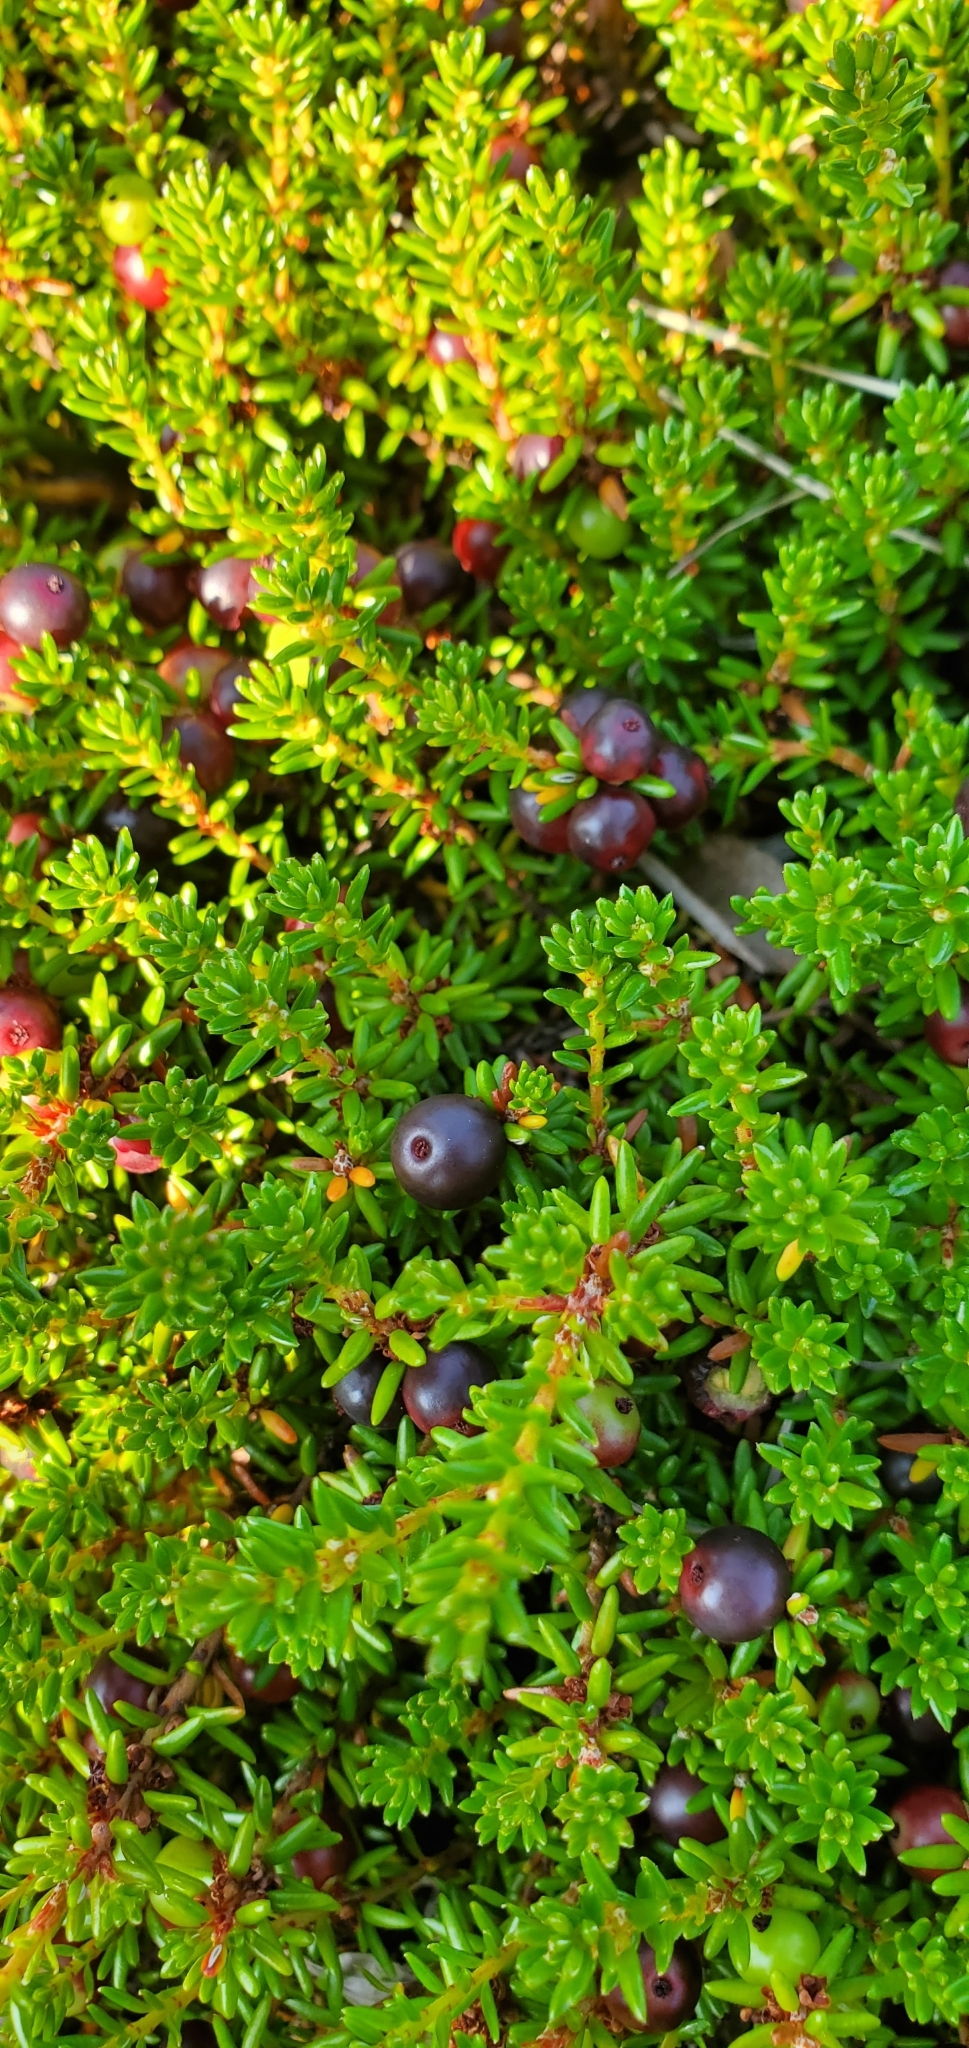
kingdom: Plantae
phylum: Tracheophyta
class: Magnoliopsida
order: Ericales
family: Ericaceae
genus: Empetrum
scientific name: Empetrum nigrum
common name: Black crowberry
